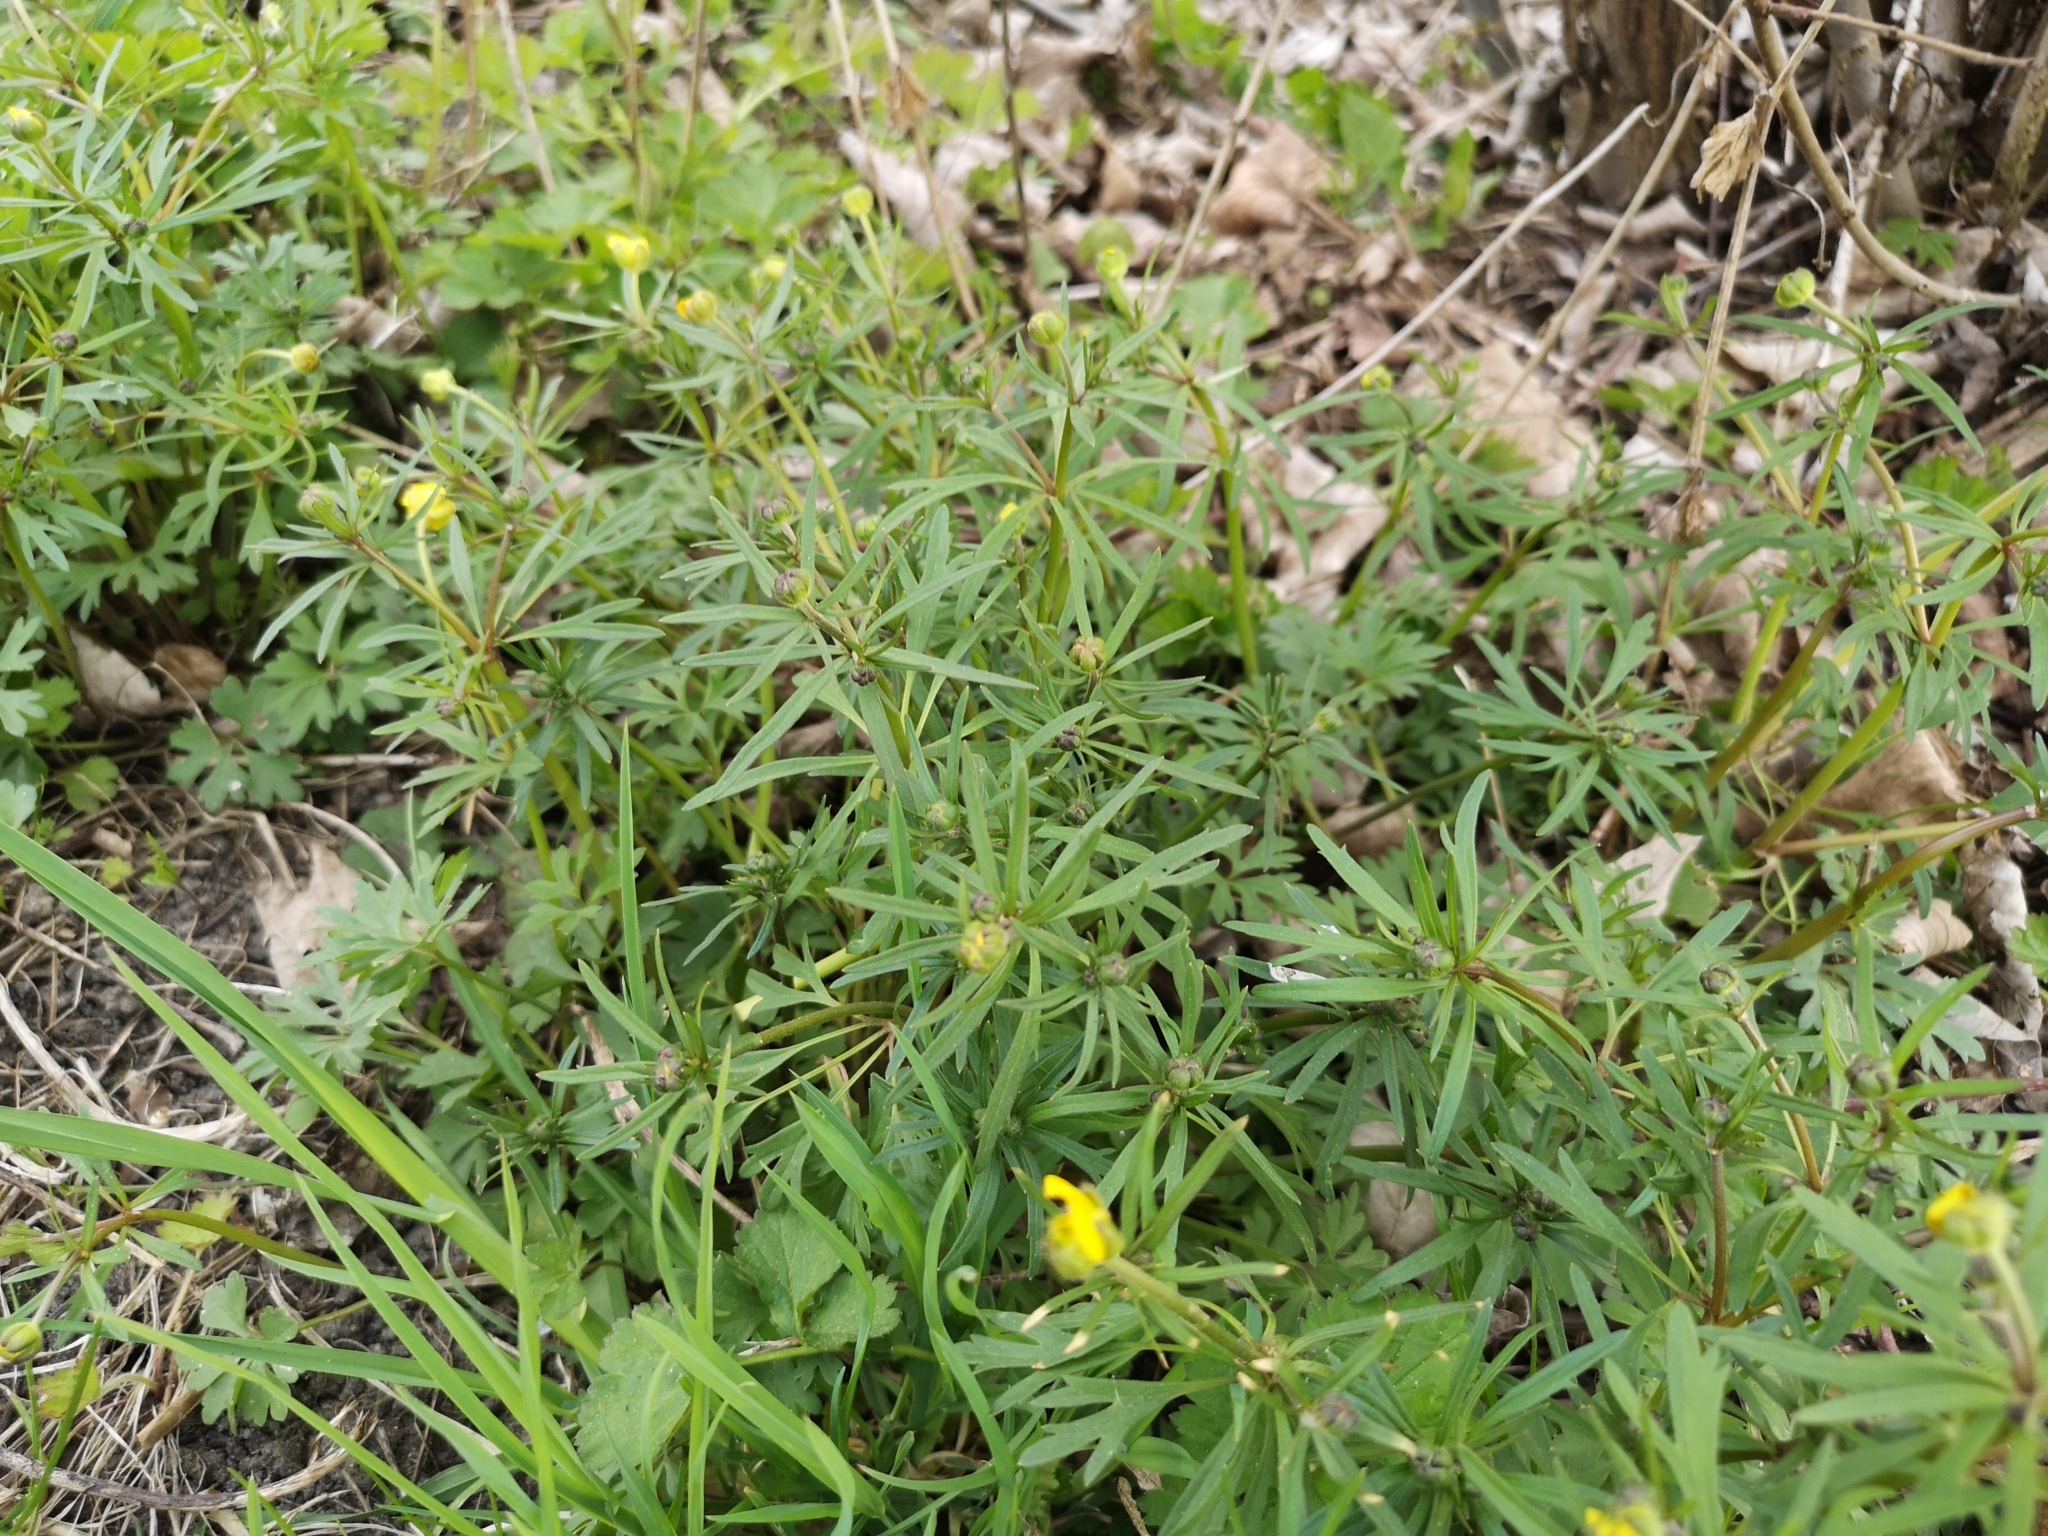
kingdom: Plantae
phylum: Tracheophyta
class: Magnoliopsida
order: Ranunculales
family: Ranunculaceae
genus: Ranunculus
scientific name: Ranunculus auricomus
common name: Goldilocks buttercup
